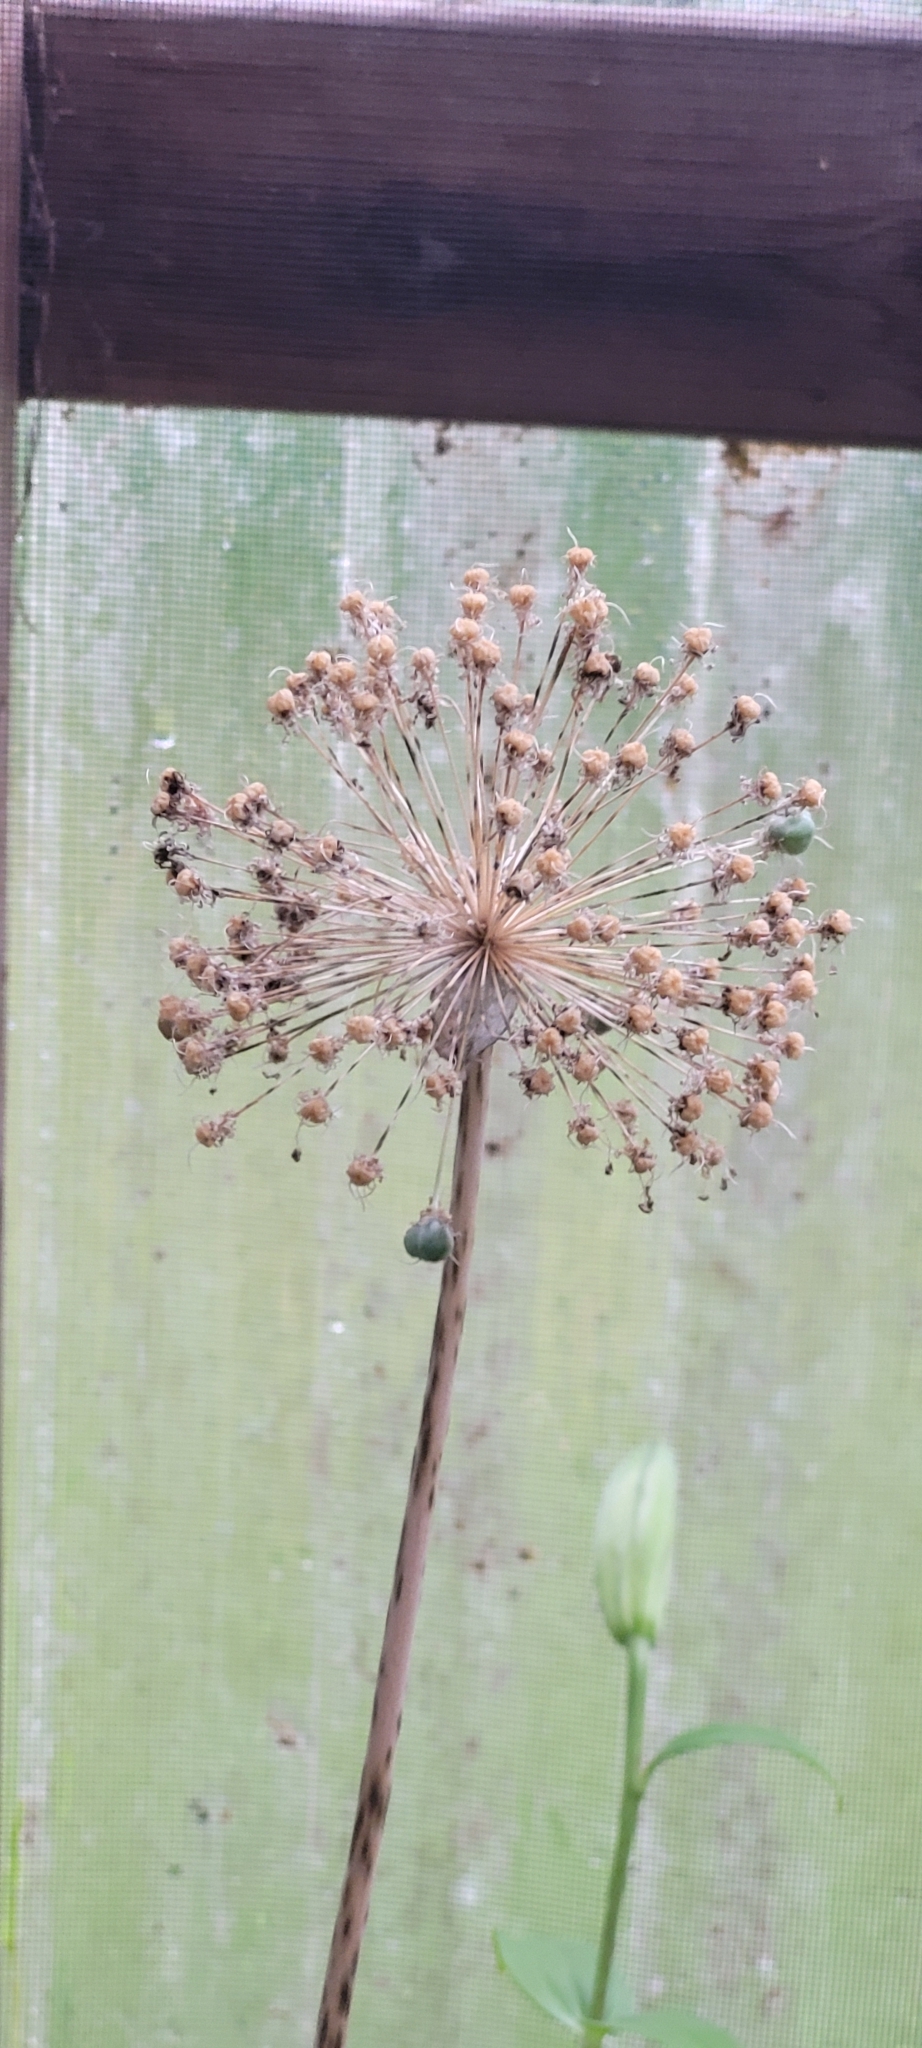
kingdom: Plantae
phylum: Tracheophyta
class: Magnoliopsida
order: Apiales
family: Apiaceae
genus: Angelica
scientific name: Angelica atropurpurea
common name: Great angelica
